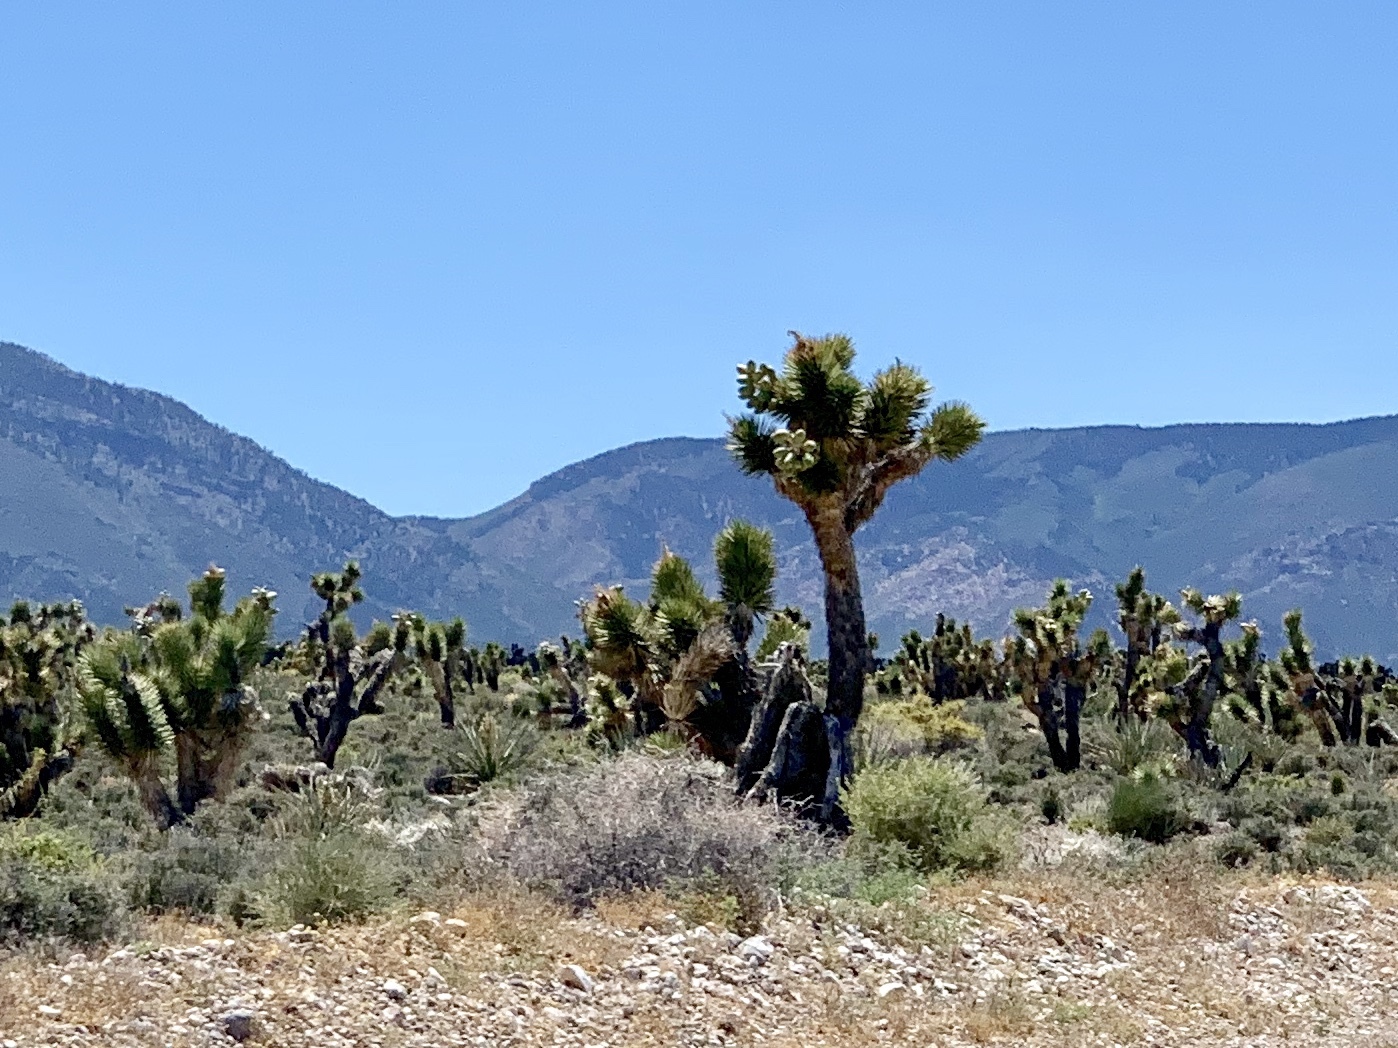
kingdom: Plantae
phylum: Tracheophyta
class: Liliopsida
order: Asparagales
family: Asparagaceae
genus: Yucca
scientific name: Yucca brevifolia
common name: Joshua tree
